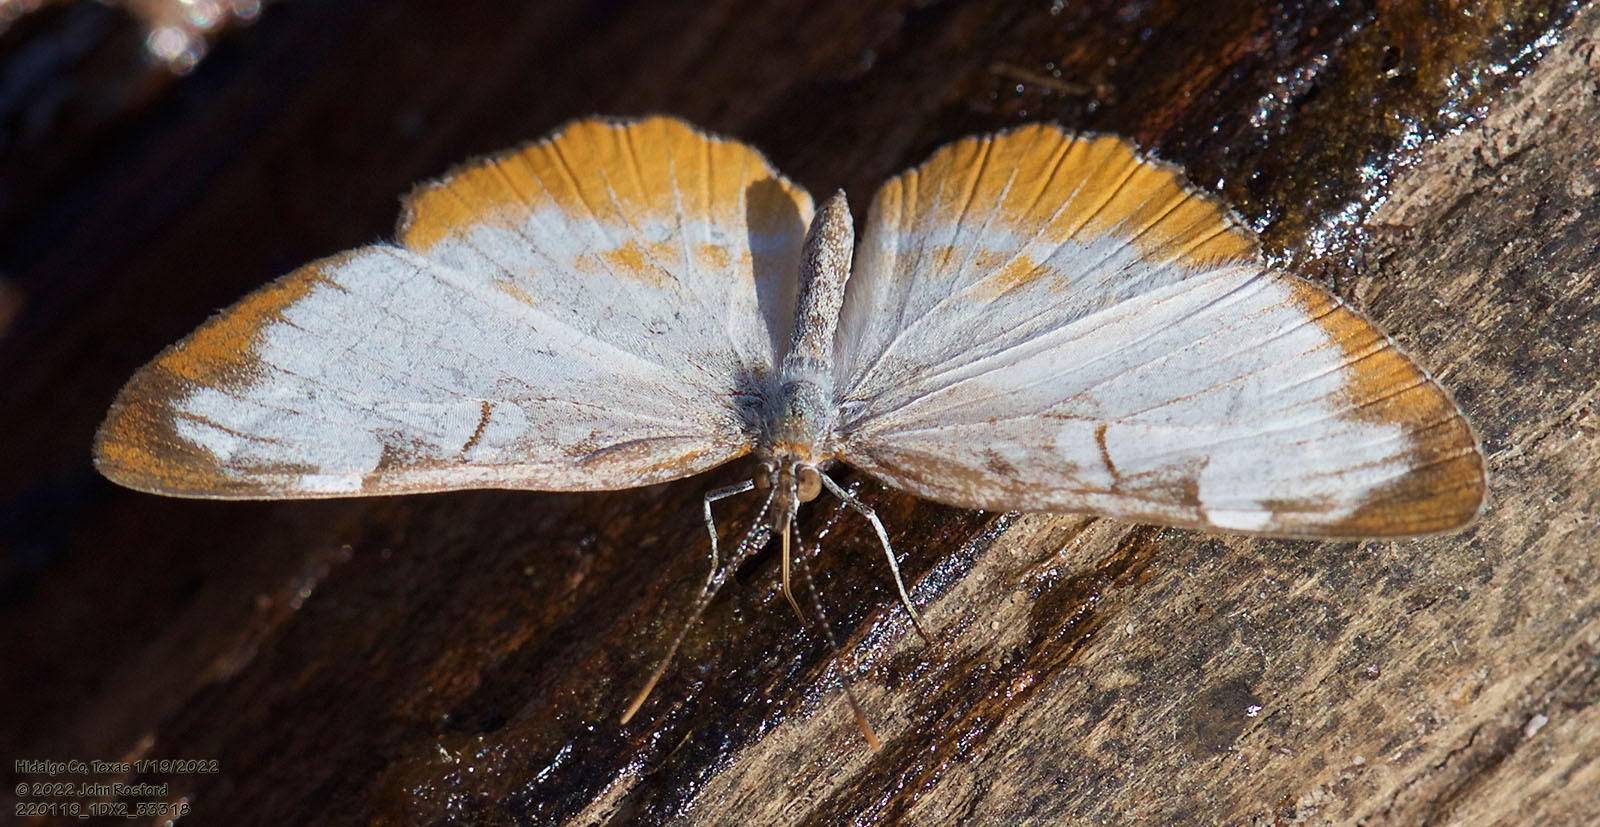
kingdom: Animalia
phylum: Arthropoda
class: Insecta
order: Lepidoptera
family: Nymphalidae
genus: Mestra
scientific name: Mestra amymone
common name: Common mestra
